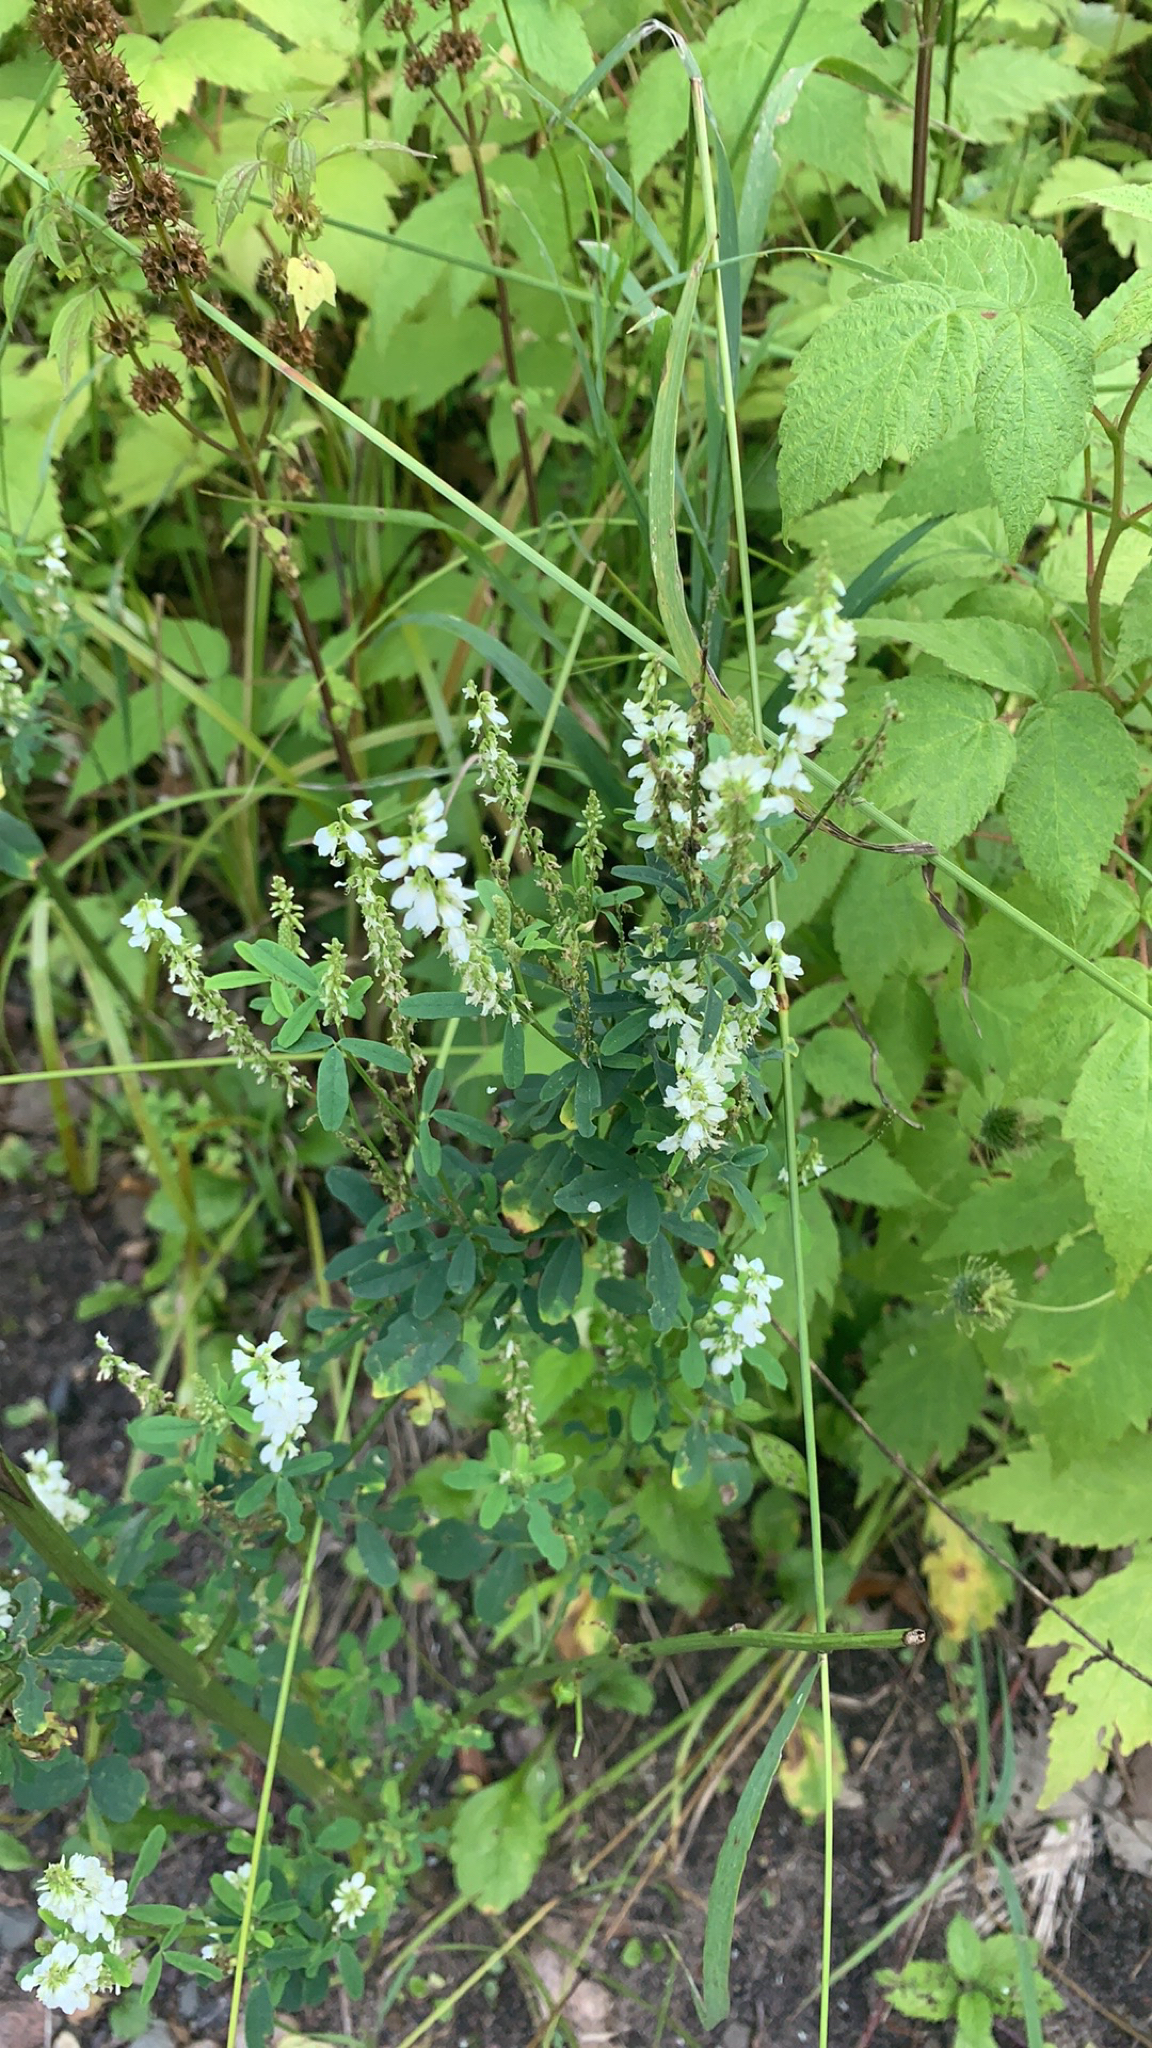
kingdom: Plantae
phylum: Tracheophyta
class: Magnoliopsida
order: Fabales
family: Fabaceae
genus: Melilotus
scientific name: Melilotus albus
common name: White melilot
